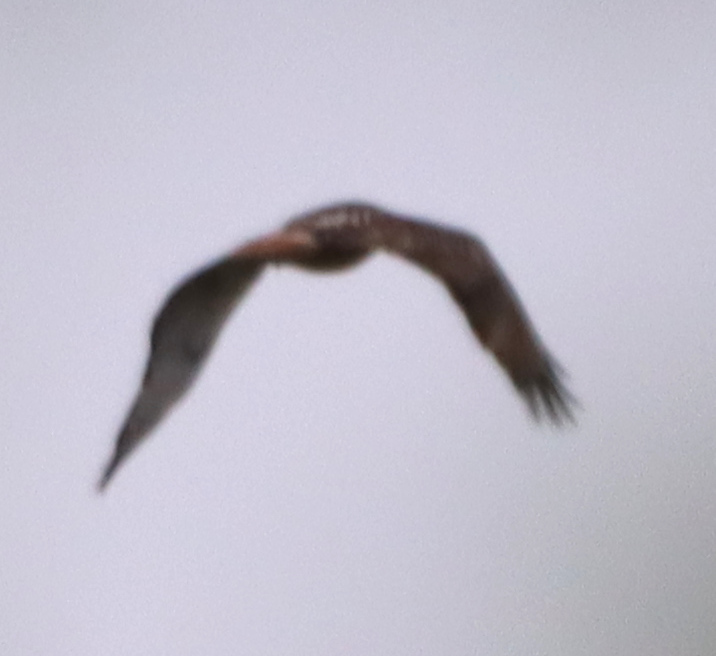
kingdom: Animalia
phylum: Chordata
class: Aves
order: Accipitriformes
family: Accipitridae
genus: Buteo
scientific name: Buteo jamaicensis
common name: Red-tailed hawk
